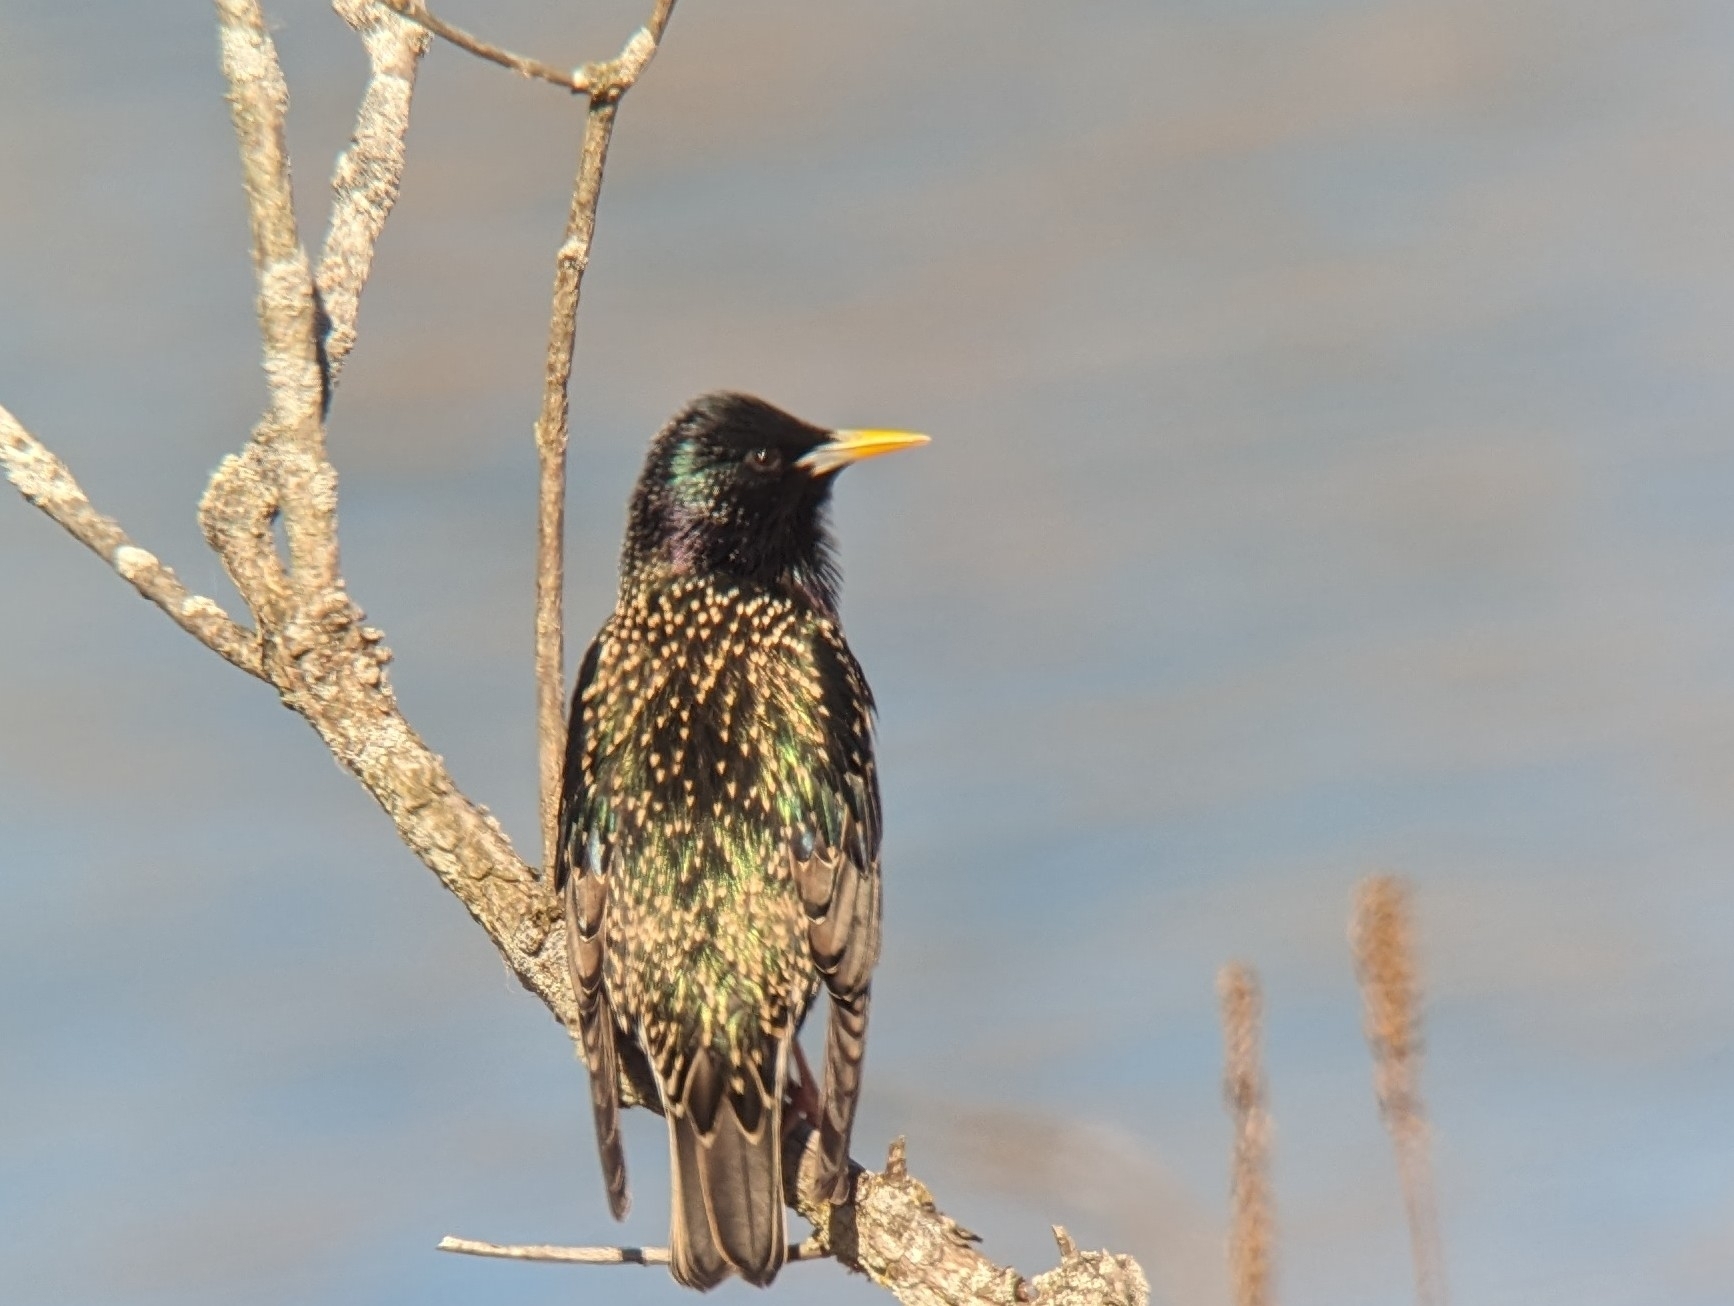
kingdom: Animalia
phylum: Chordata
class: Aves
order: Passeriformes
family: Sturnidae
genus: Sturnus
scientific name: Sturnus vulgaris
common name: Common starling
